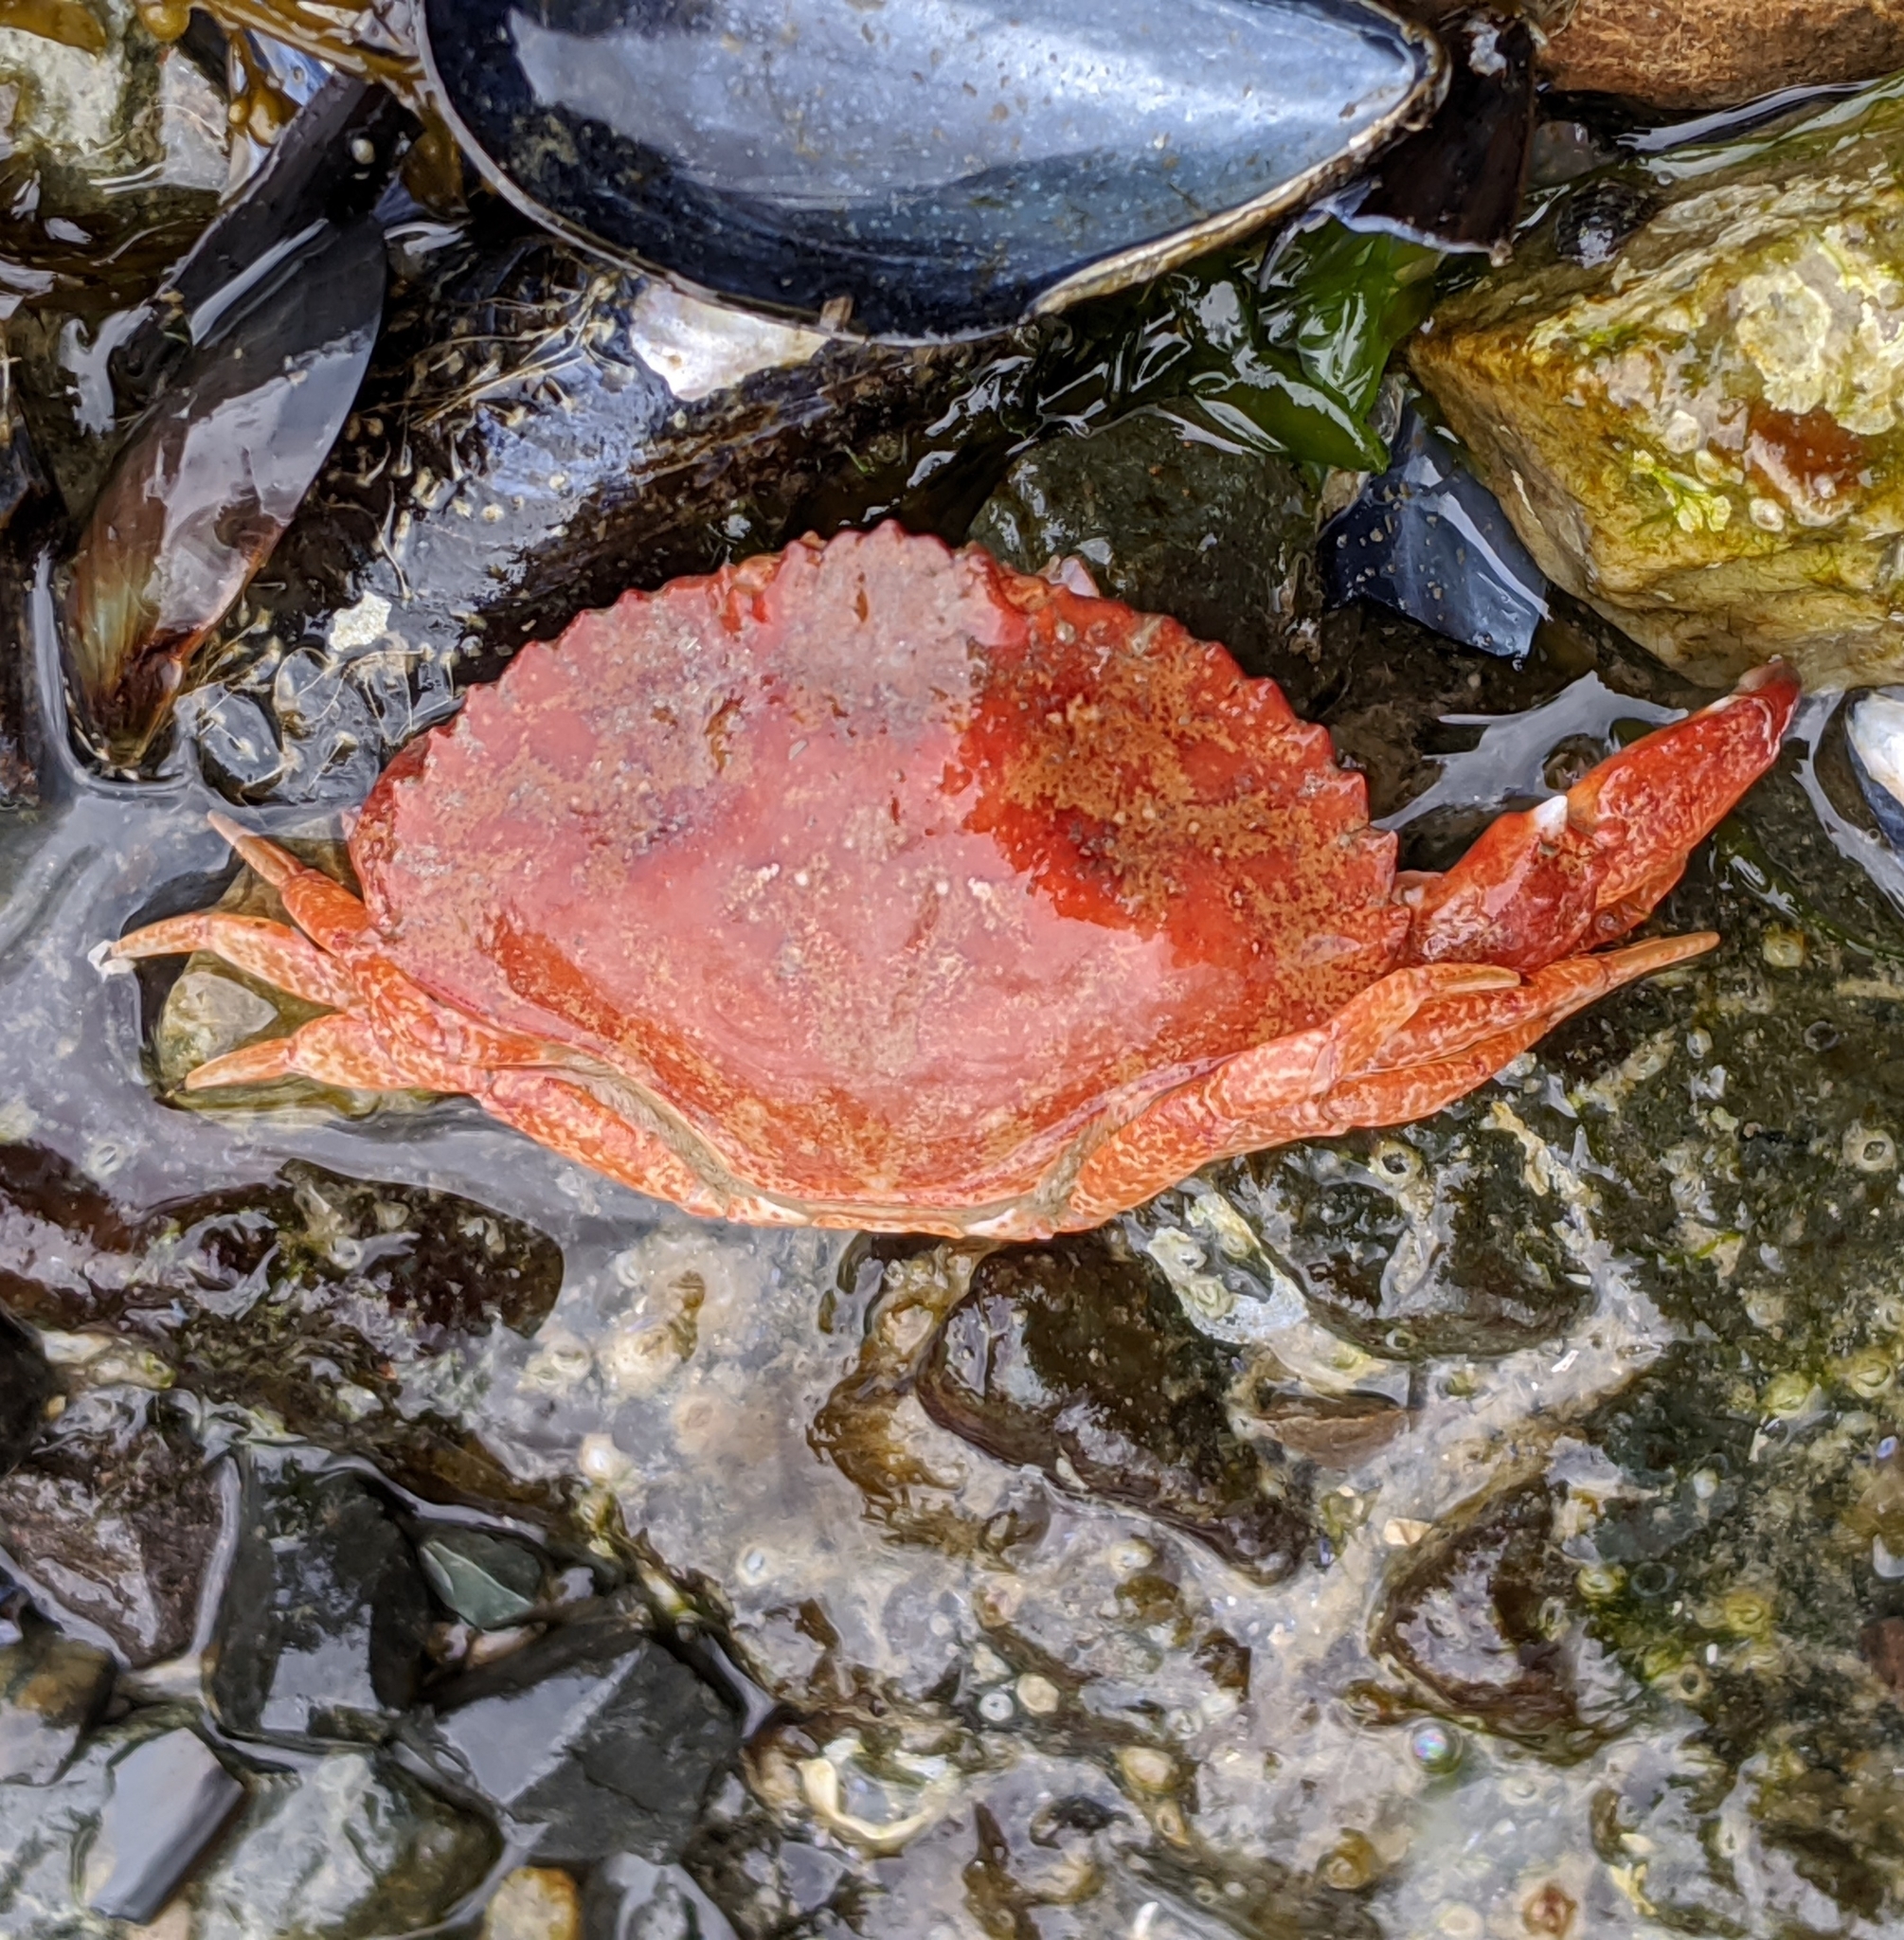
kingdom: Animalia
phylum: Arthropoda
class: Malacostraca
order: Decapoda
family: Cancridae
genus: Cancer
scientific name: Cancer productus
